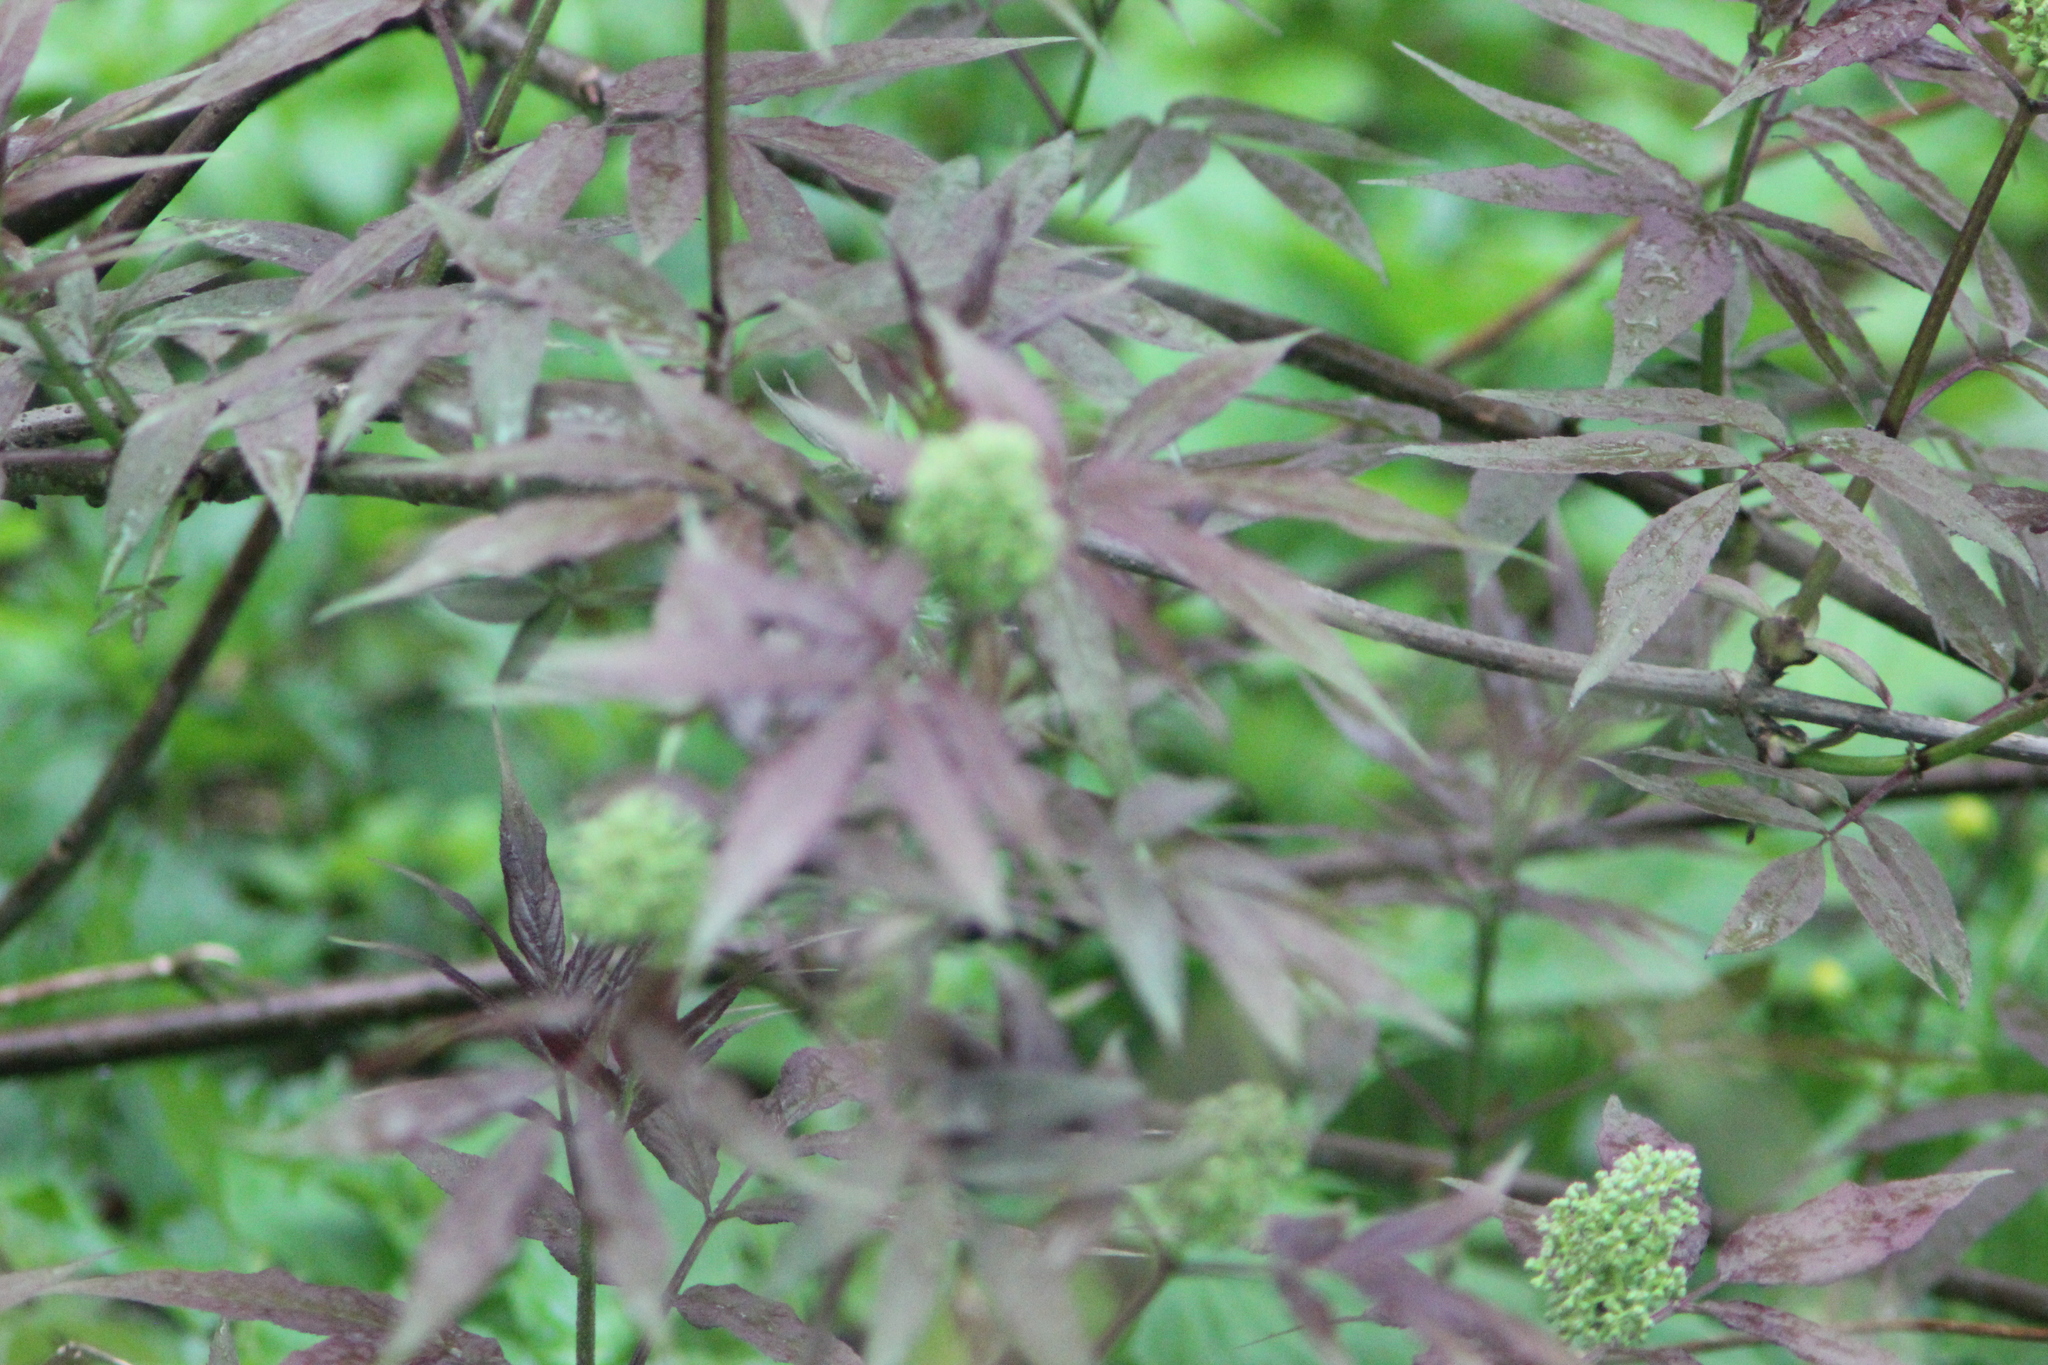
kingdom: Plantae
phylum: Tracheophyta
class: Magnoliopsida
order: Dipsacales
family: Viburnaceae
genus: Sambucus
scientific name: Sambucus racemosa
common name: Red-berried elder
